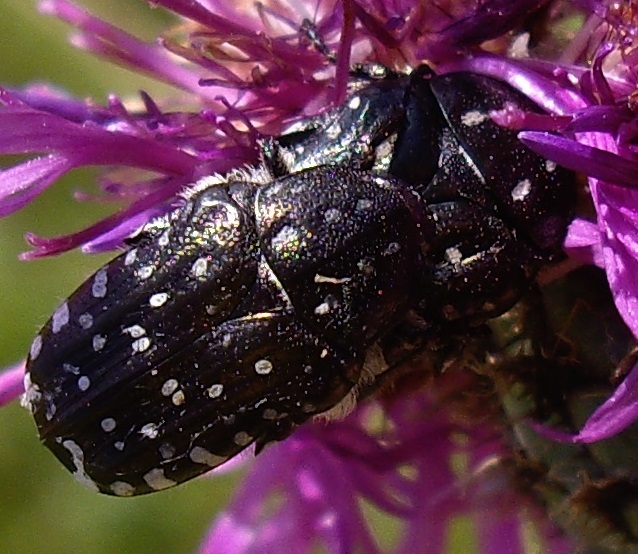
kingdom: Animalia
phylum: Arthropoda
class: Insecta
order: Coleoptera
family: Scarabaeidae
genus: Oxythyrea
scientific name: Oxythyrea funesta
